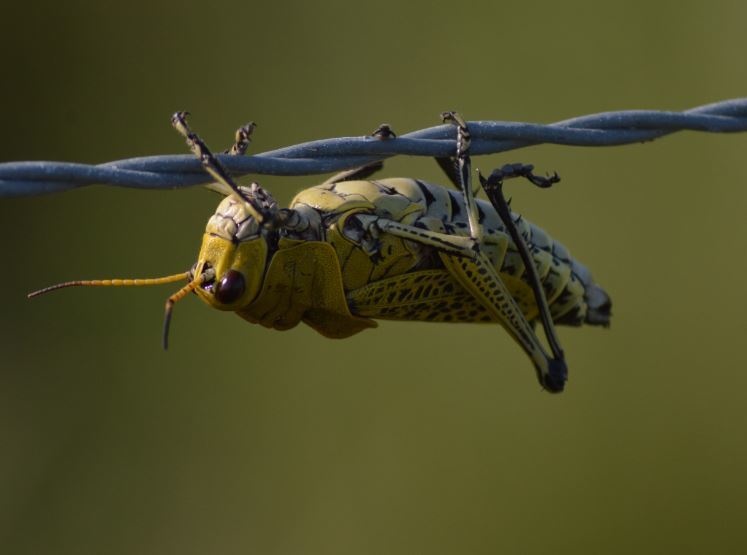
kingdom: Animalia
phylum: Arthropoda
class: Insecta
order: Orthoptera
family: Romaleidae
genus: Romalea
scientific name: Romalea
